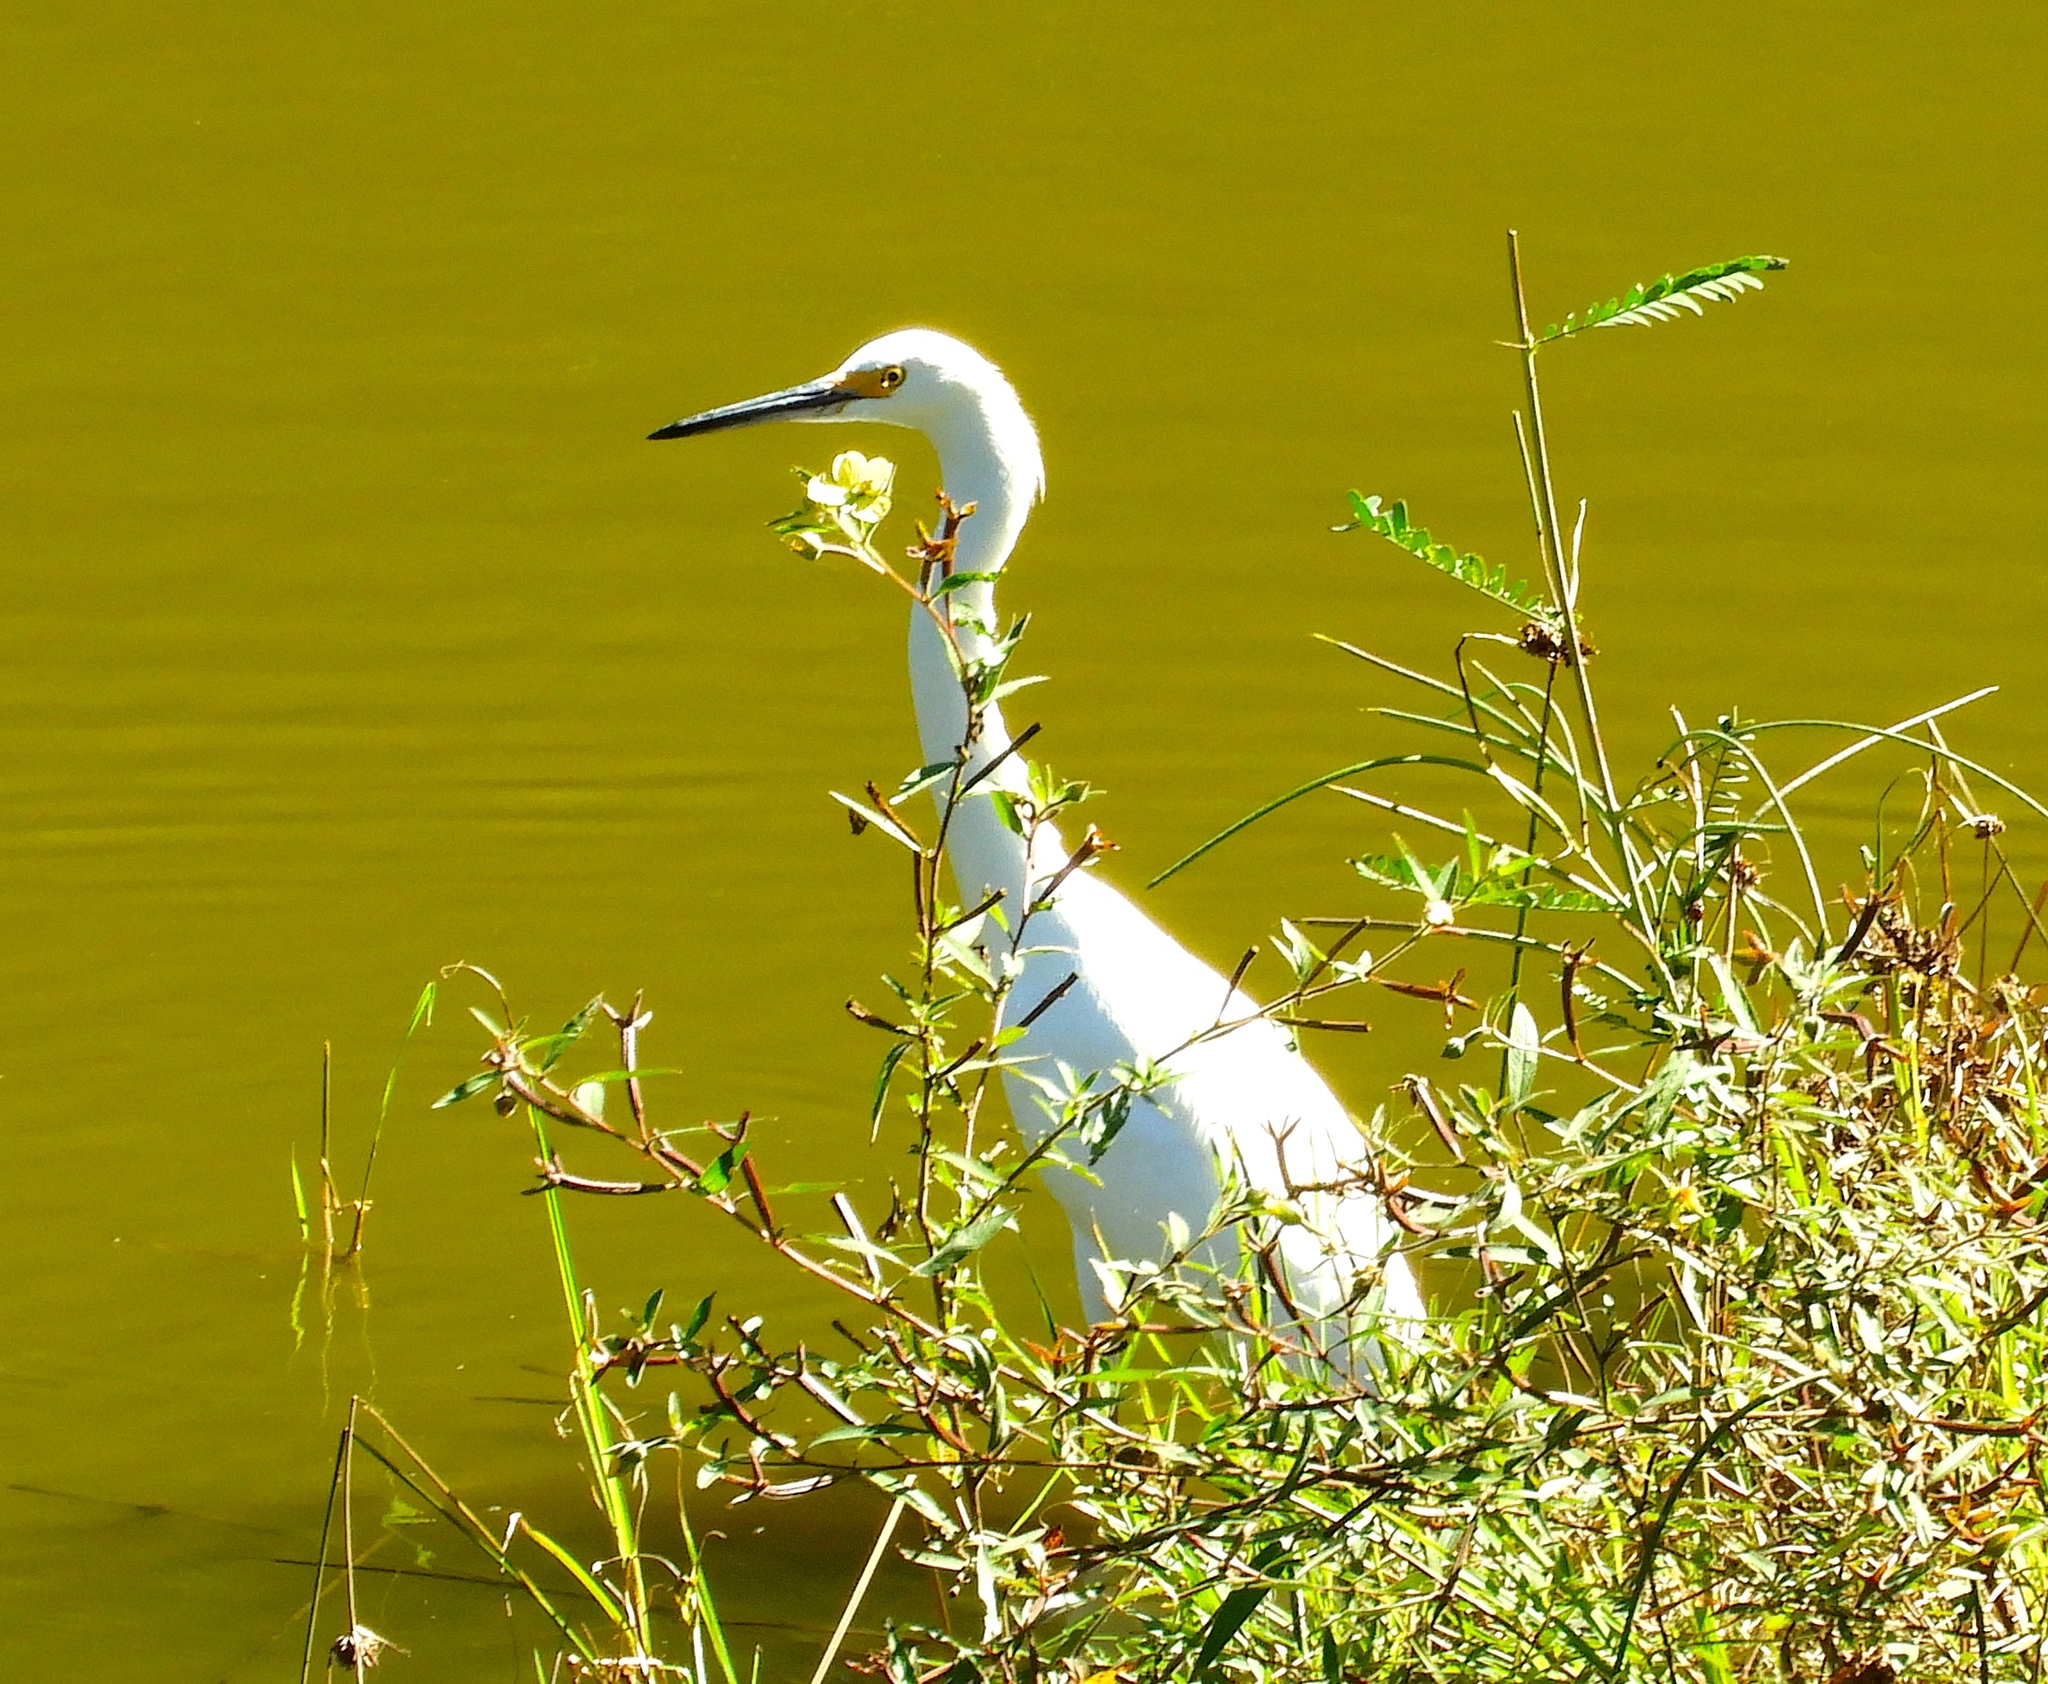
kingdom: Animalia
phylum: Chordata
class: Aves
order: Pelecaniformes
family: Ardeidae
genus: Egretta
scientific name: Egretta thula
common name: Snowy egret
